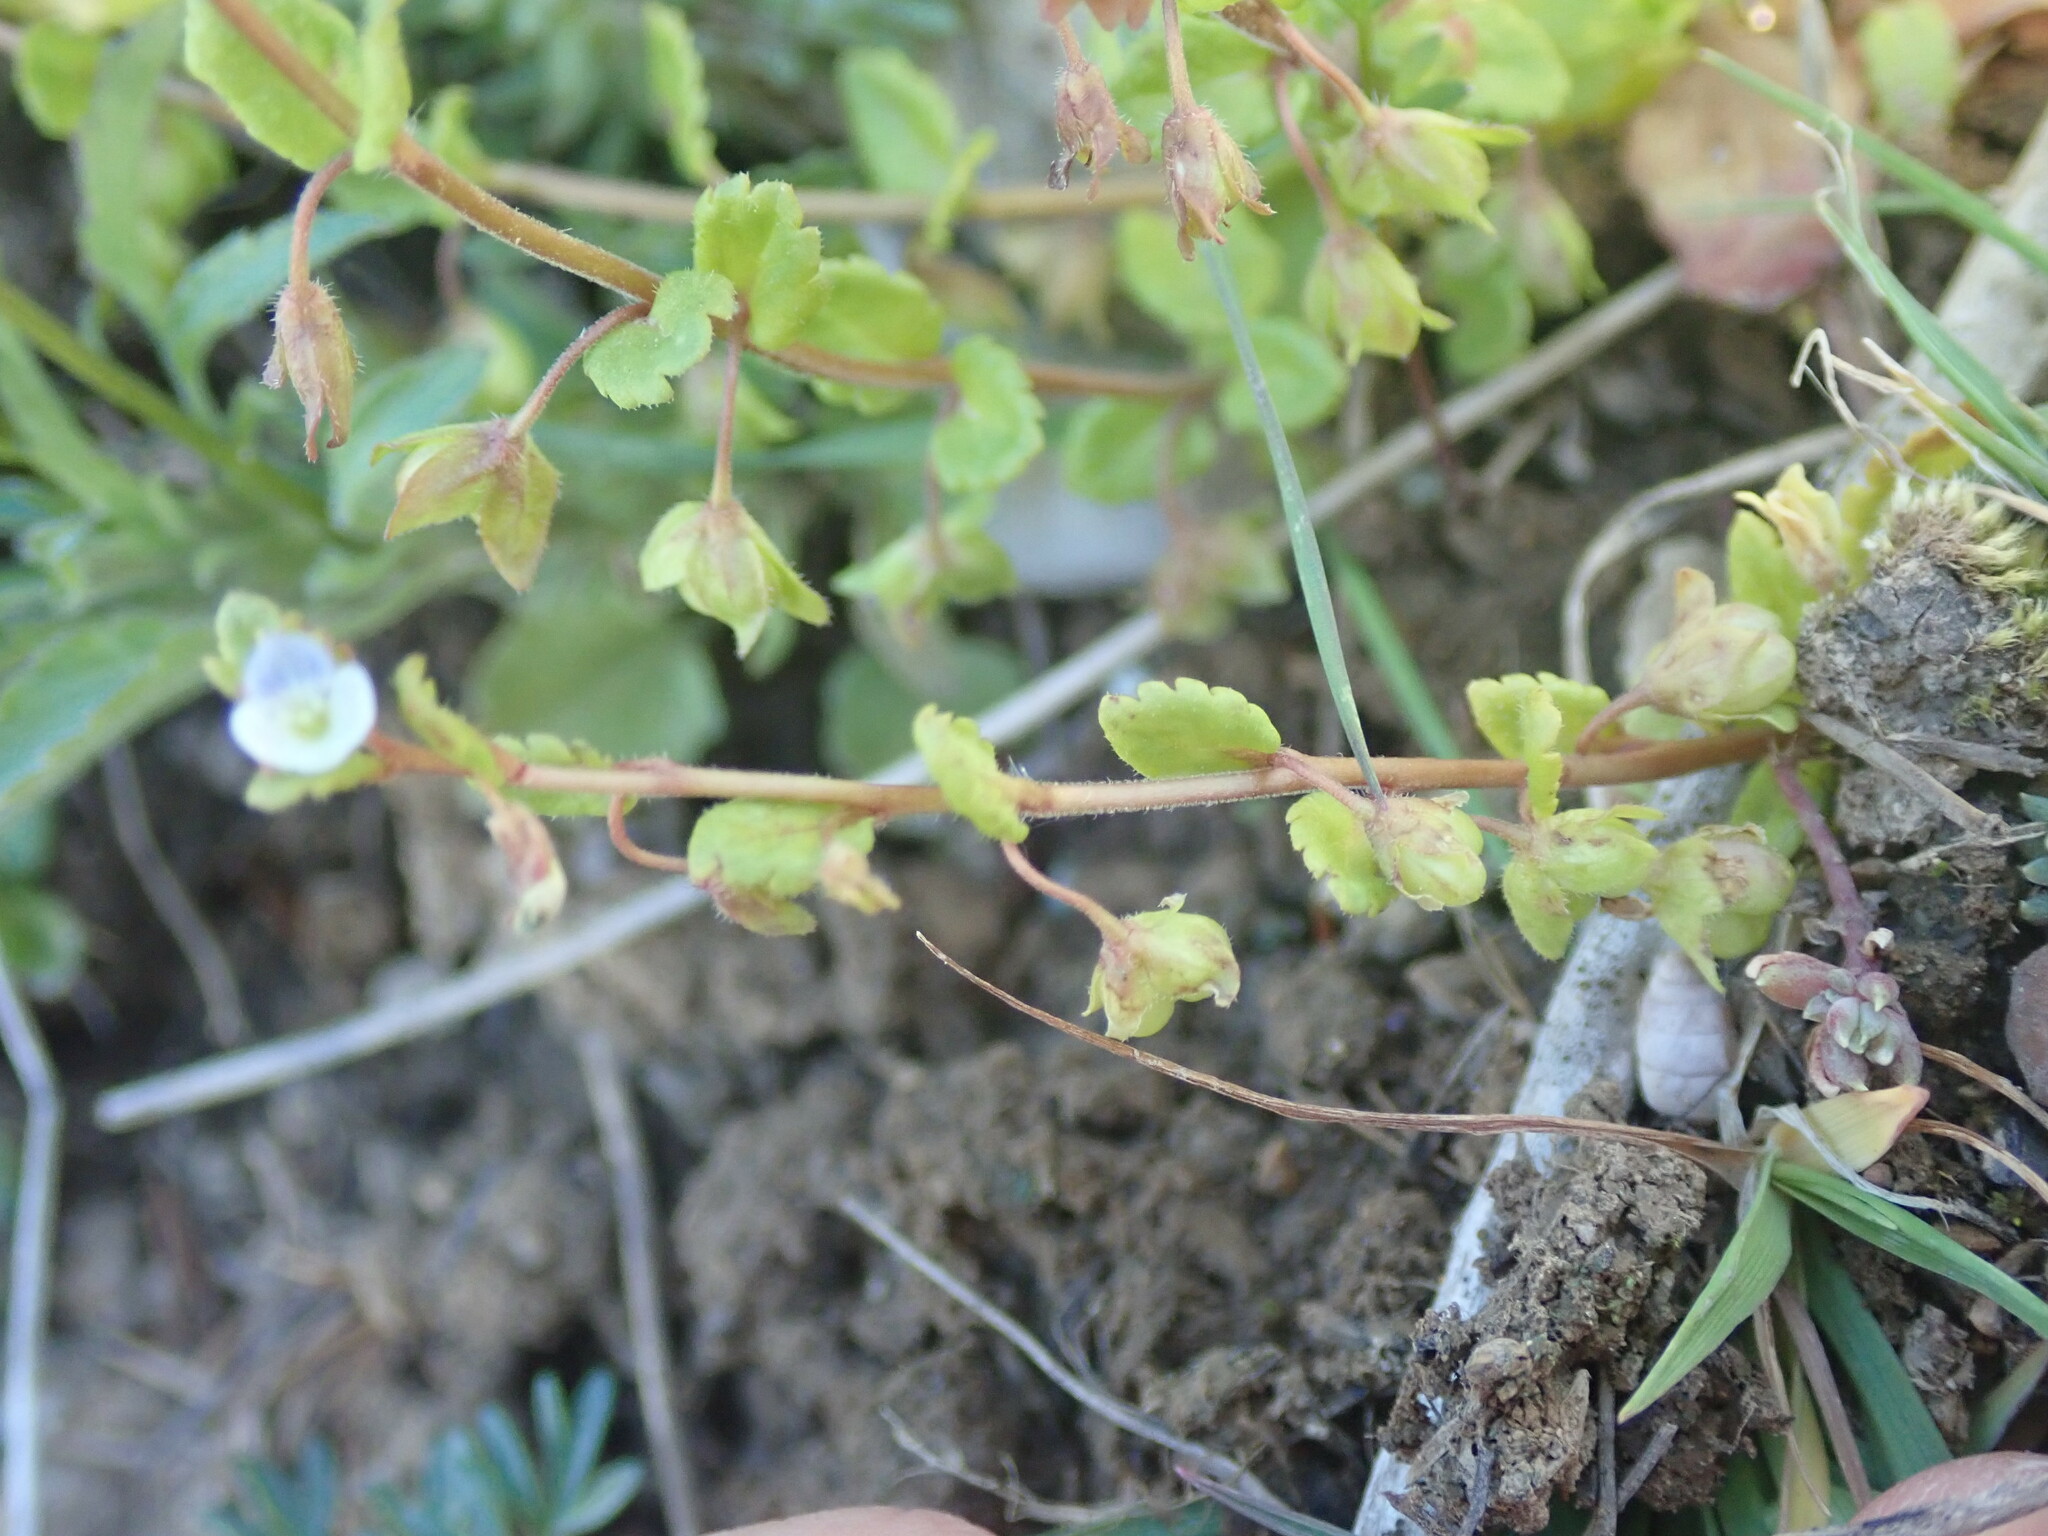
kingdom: Plantae
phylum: Tracheophyta
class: Magnoliopsida
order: Lamiales
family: Plantaginaceae
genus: Veronica
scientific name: Veronica polita
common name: Grey field-speedwell
